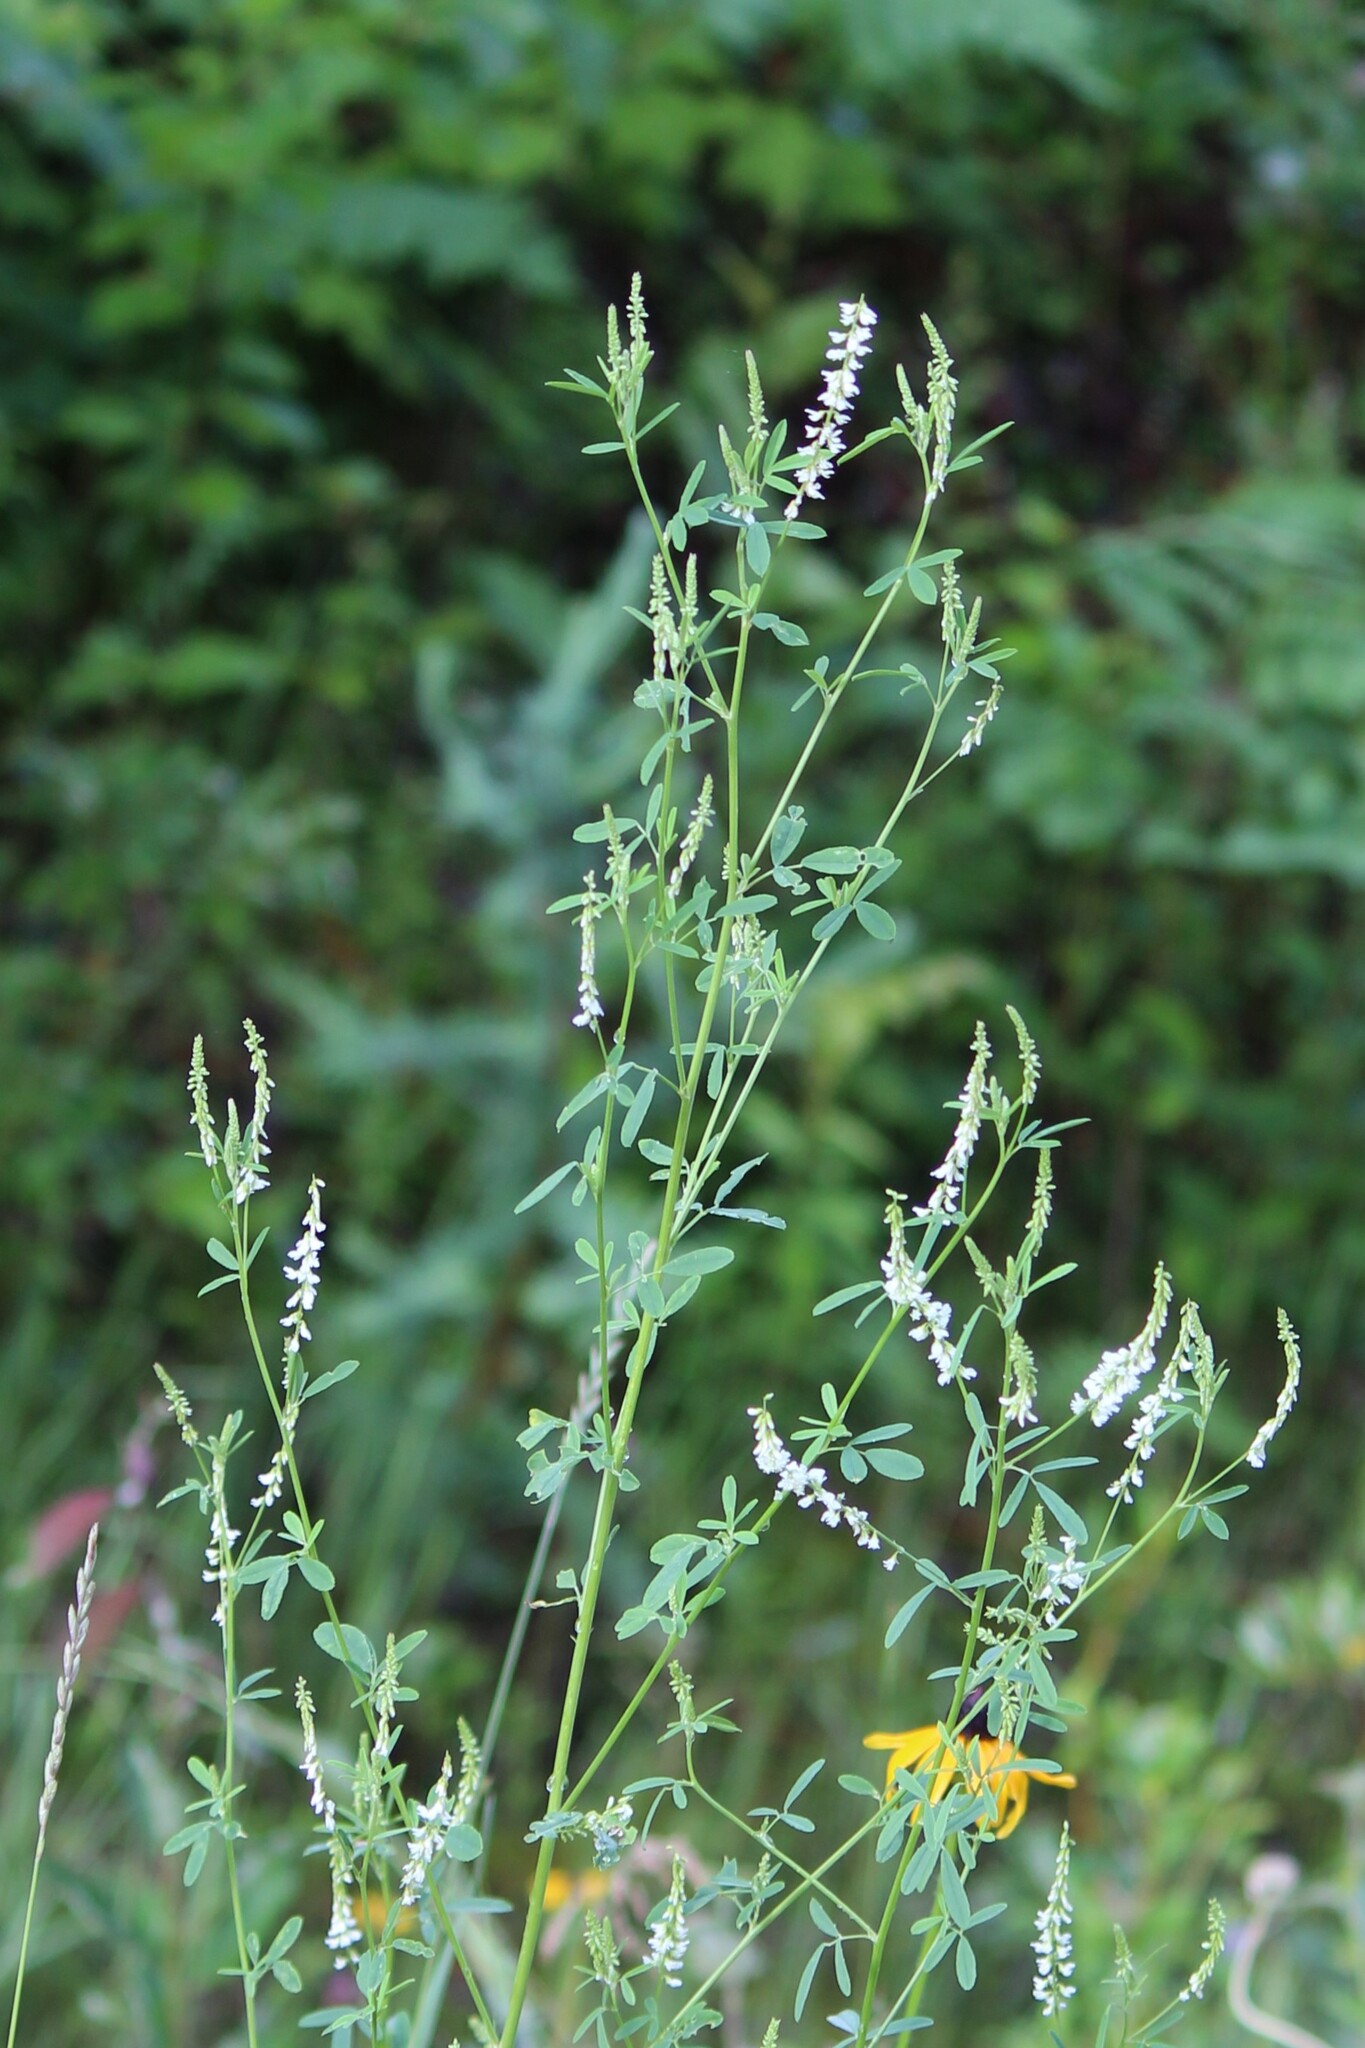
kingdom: Plantae
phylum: Tracheophyta
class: Magnoliopsida
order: Fabales
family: Fabaceae
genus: Melilotus
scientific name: Melilotus albus
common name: White melilot
